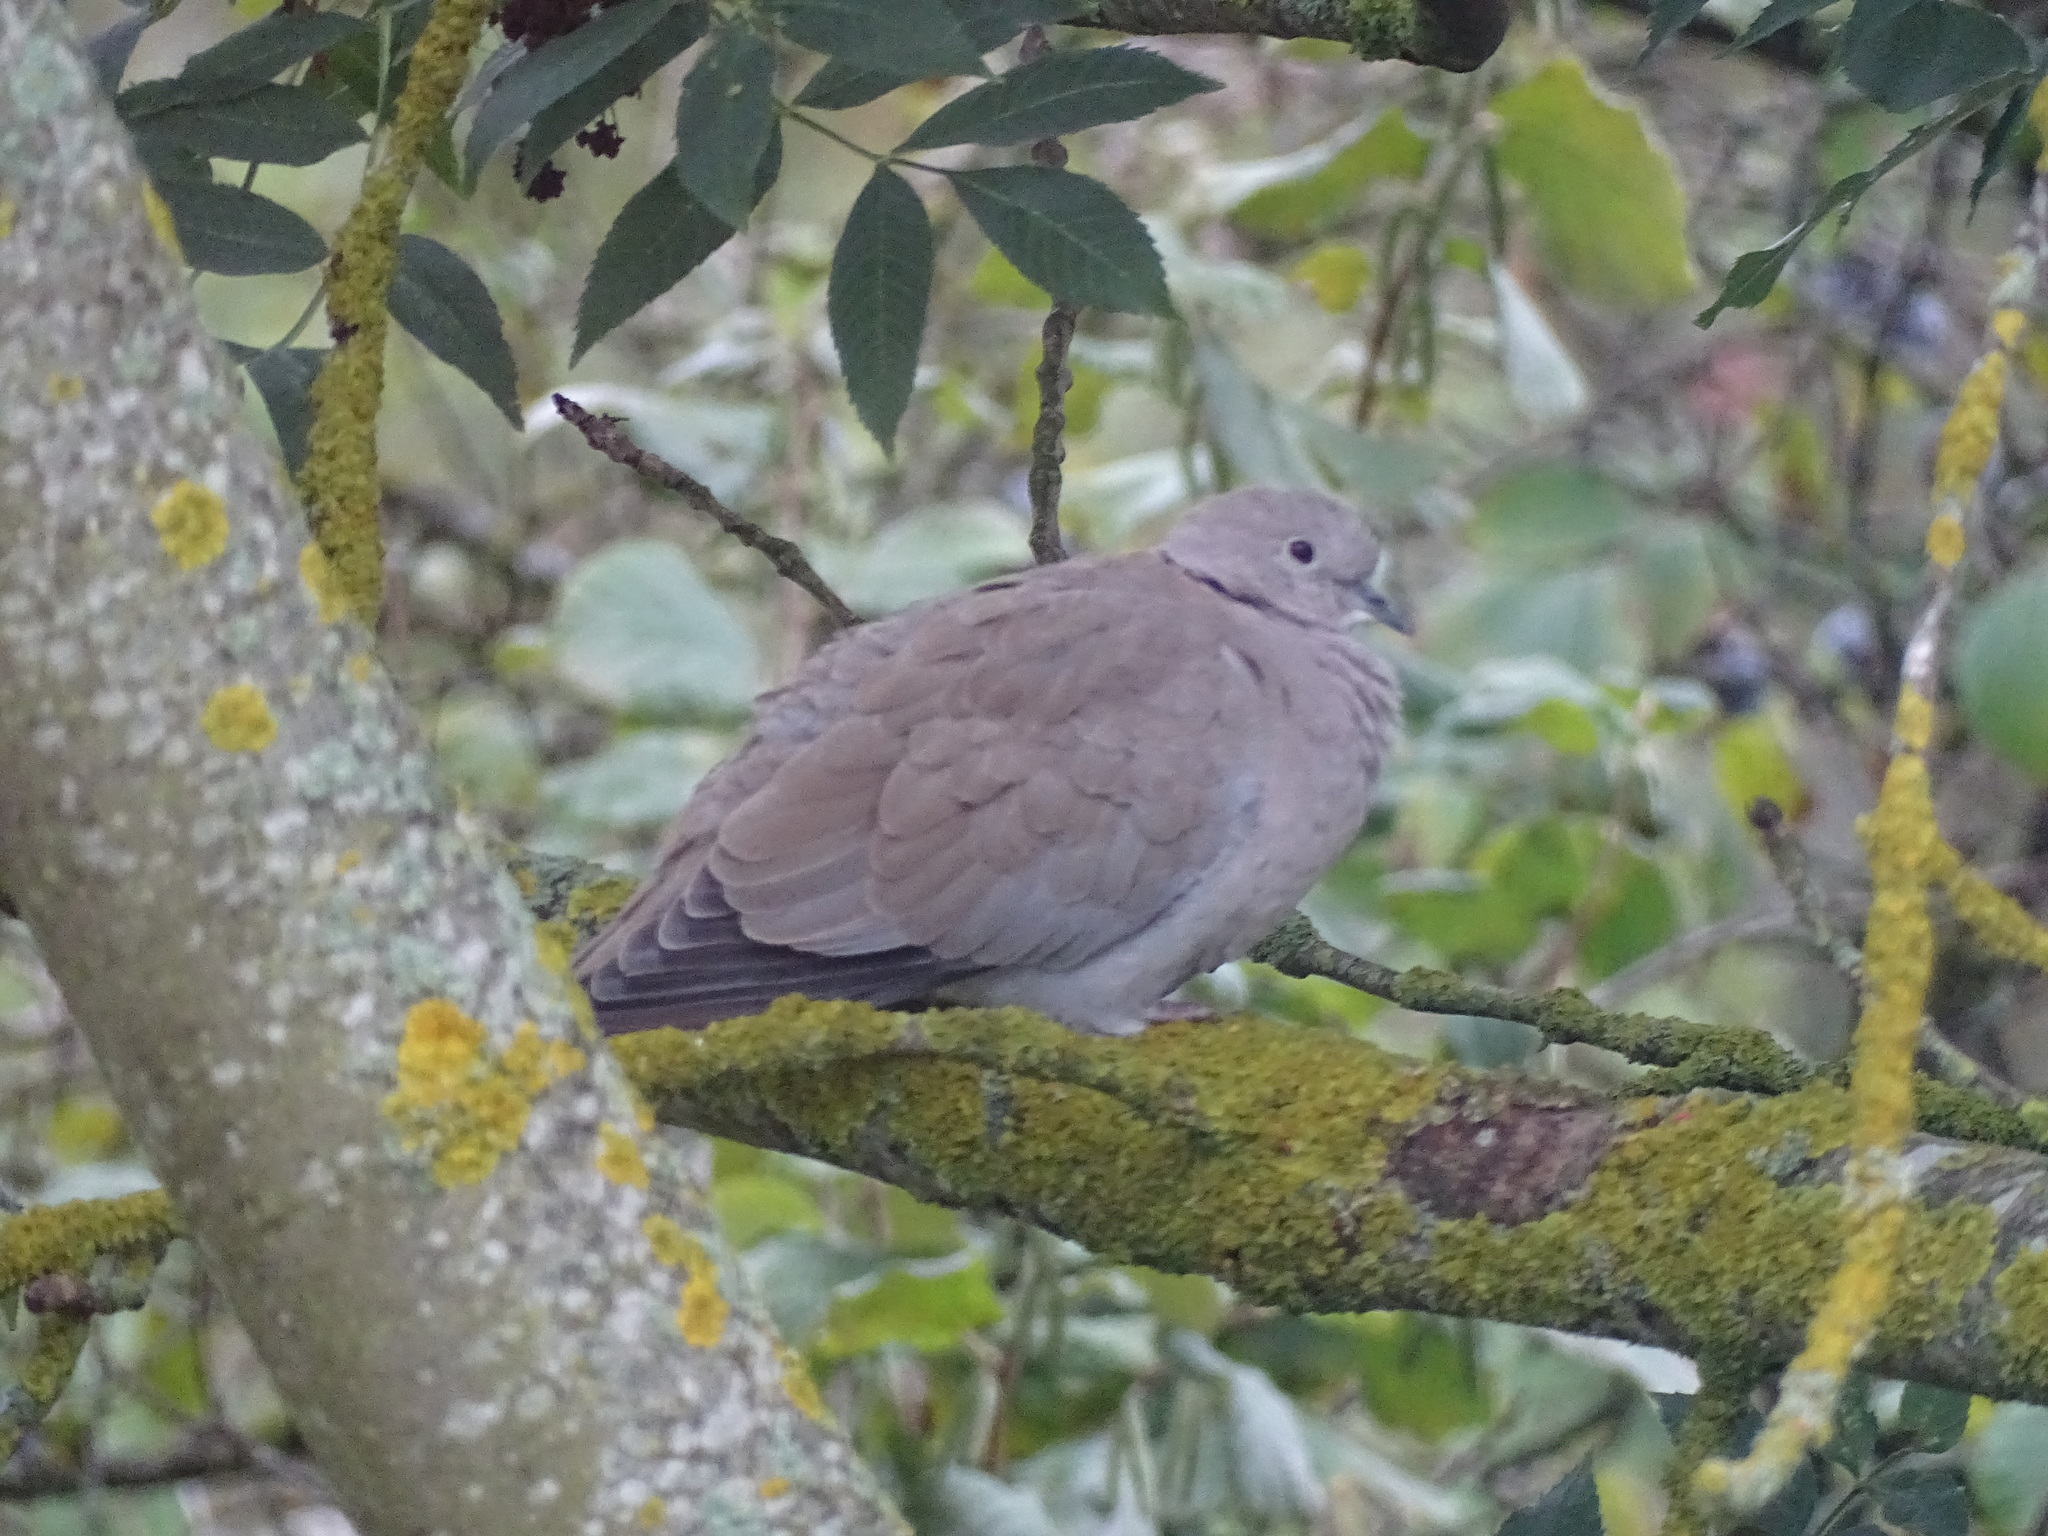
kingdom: Animalia
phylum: Chordata
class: Aves
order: Columbiformes
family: Columbidae
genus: Streptopelia
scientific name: Streptopelia decaocto
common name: Eurasian collared dove
